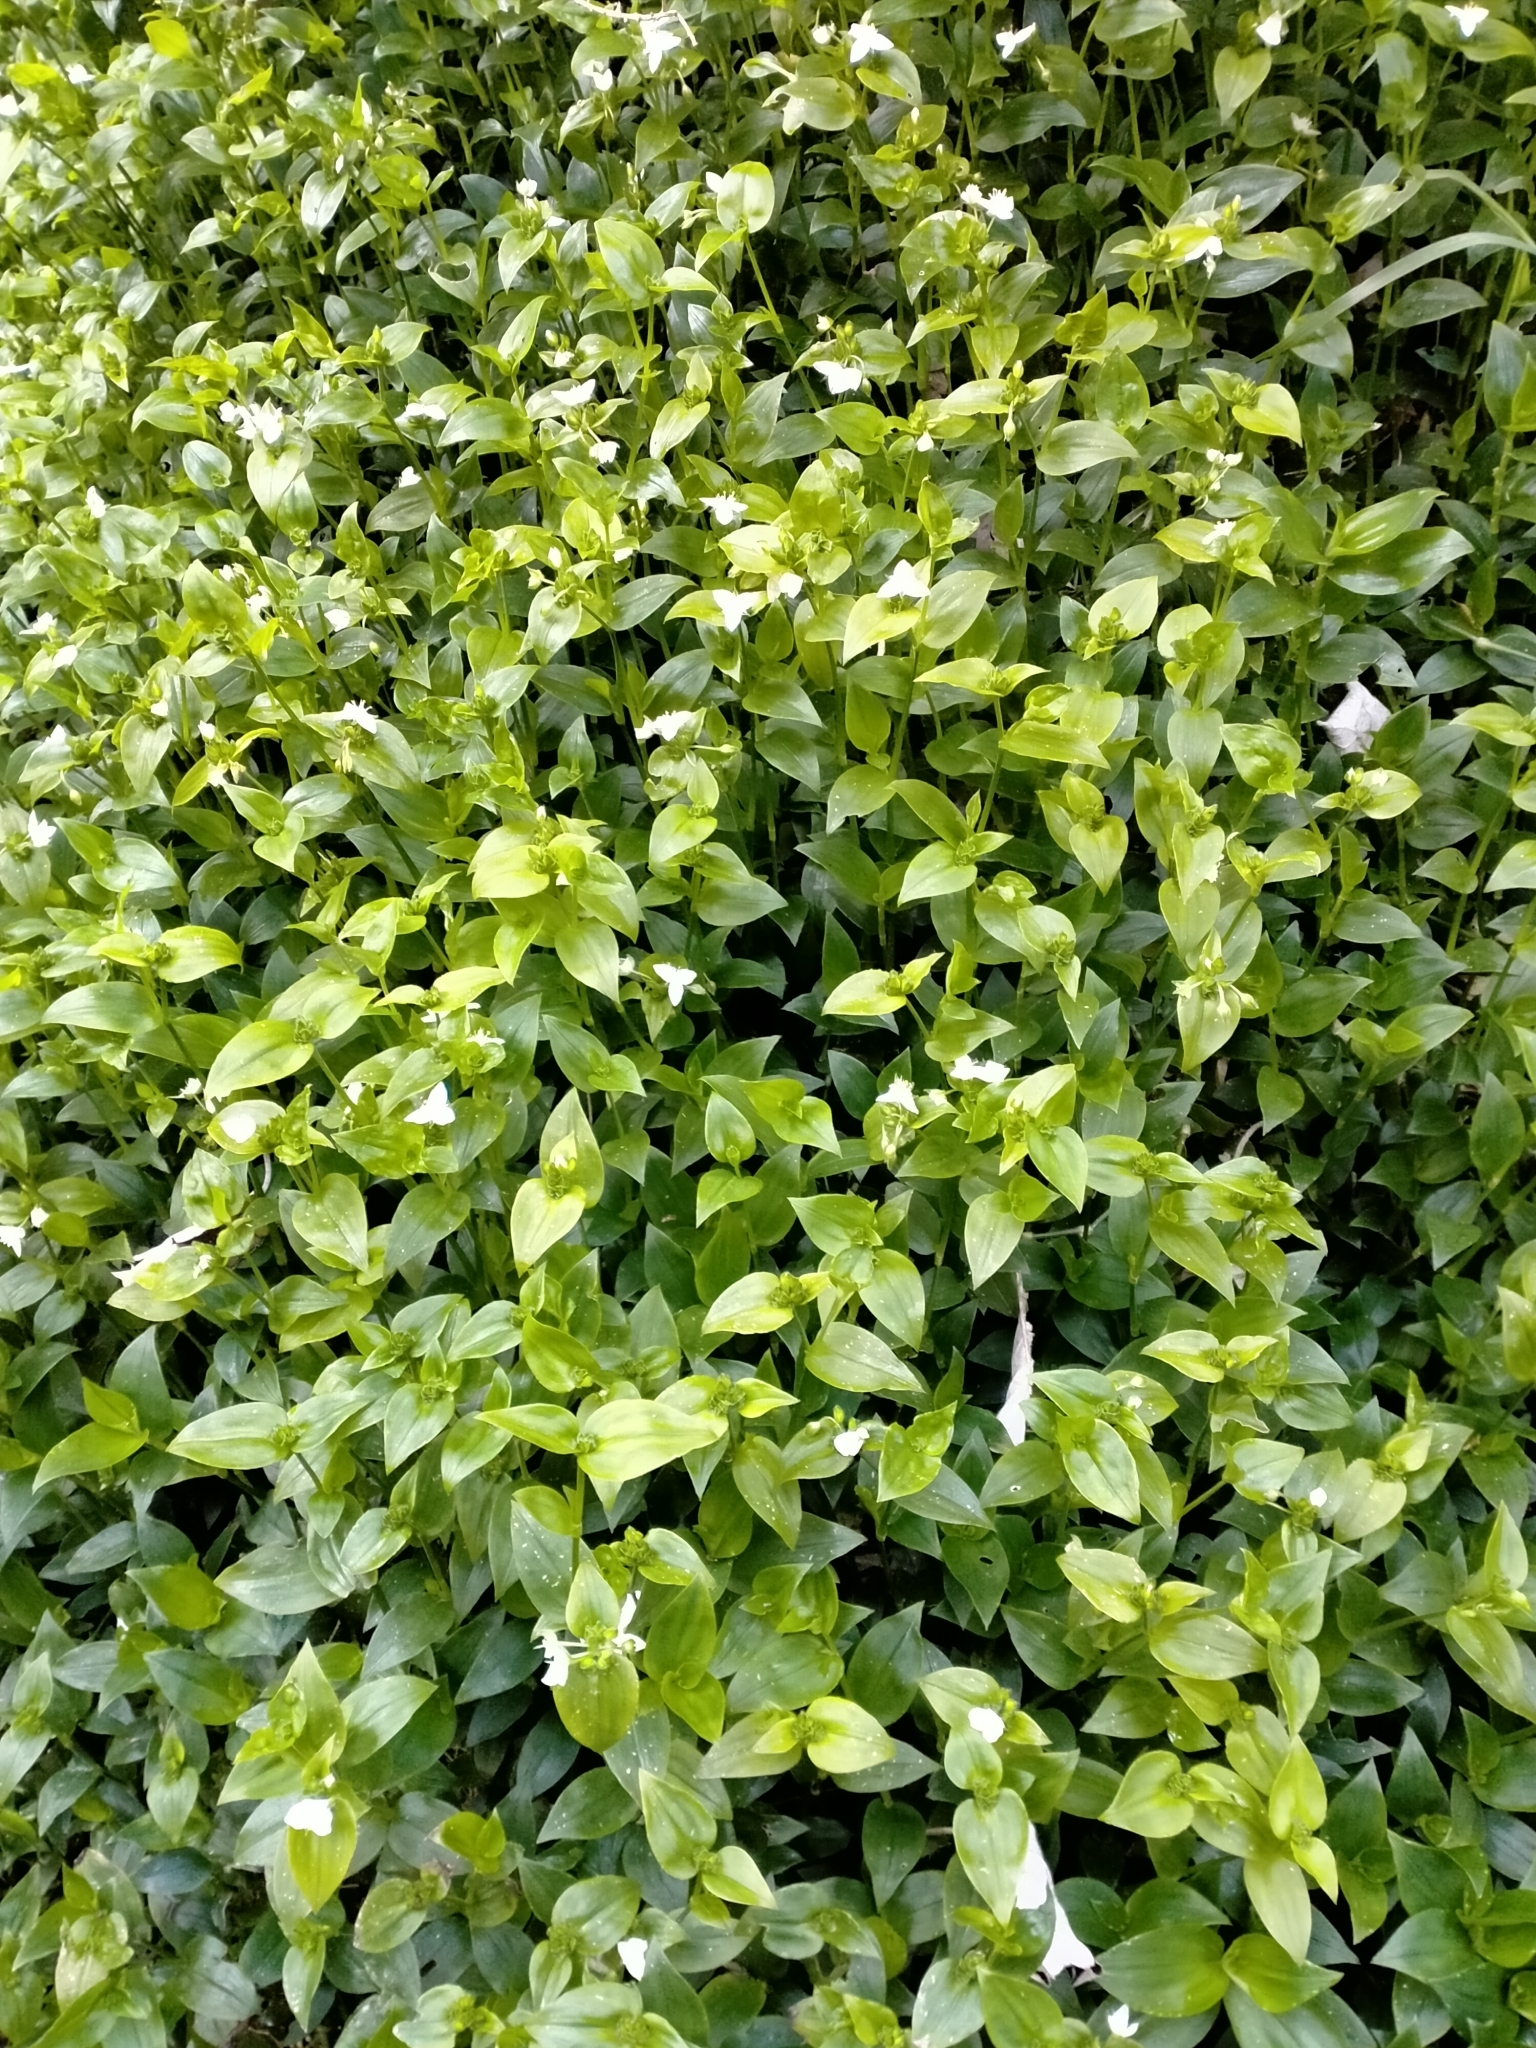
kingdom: Plantae
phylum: Tracheophyta
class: Liliopsida
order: Commelinales
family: Commelinaceae
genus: Tradescantia
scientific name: Tradescantia fluminensis
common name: Wandering-jew
